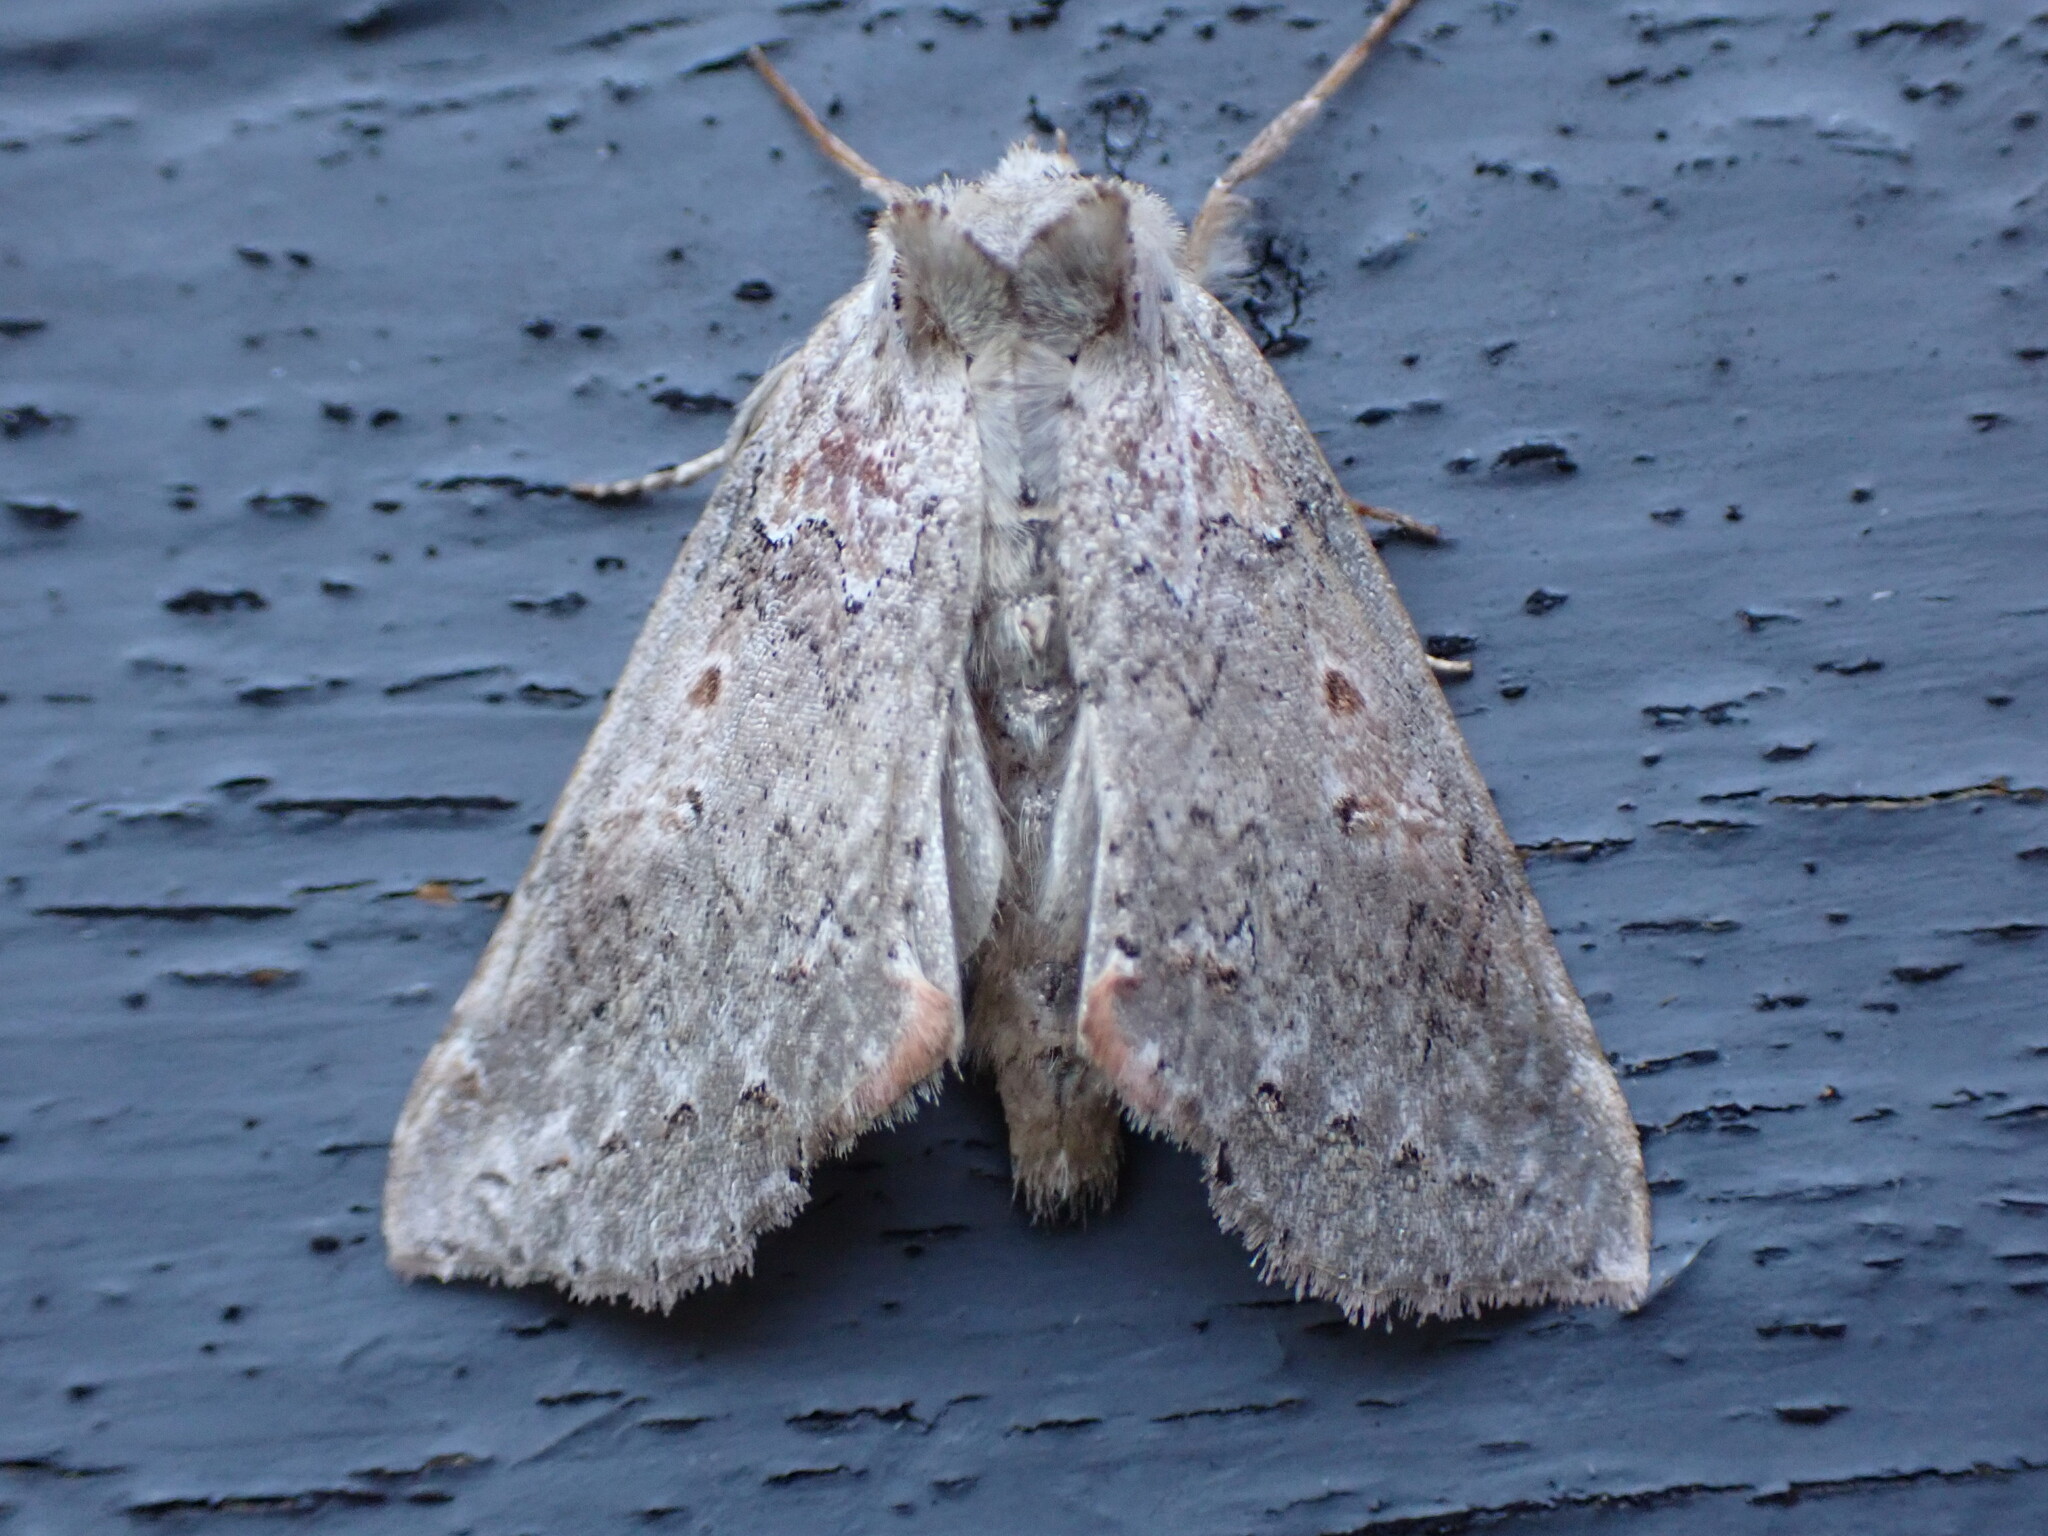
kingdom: Animalia
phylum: Arthropoda
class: Insecta
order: Lepidoptera
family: Drepanidae
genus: Pseudothyatira
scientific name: Pseudothyatira cymatophoroides
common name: Tufted thyatirid moth
